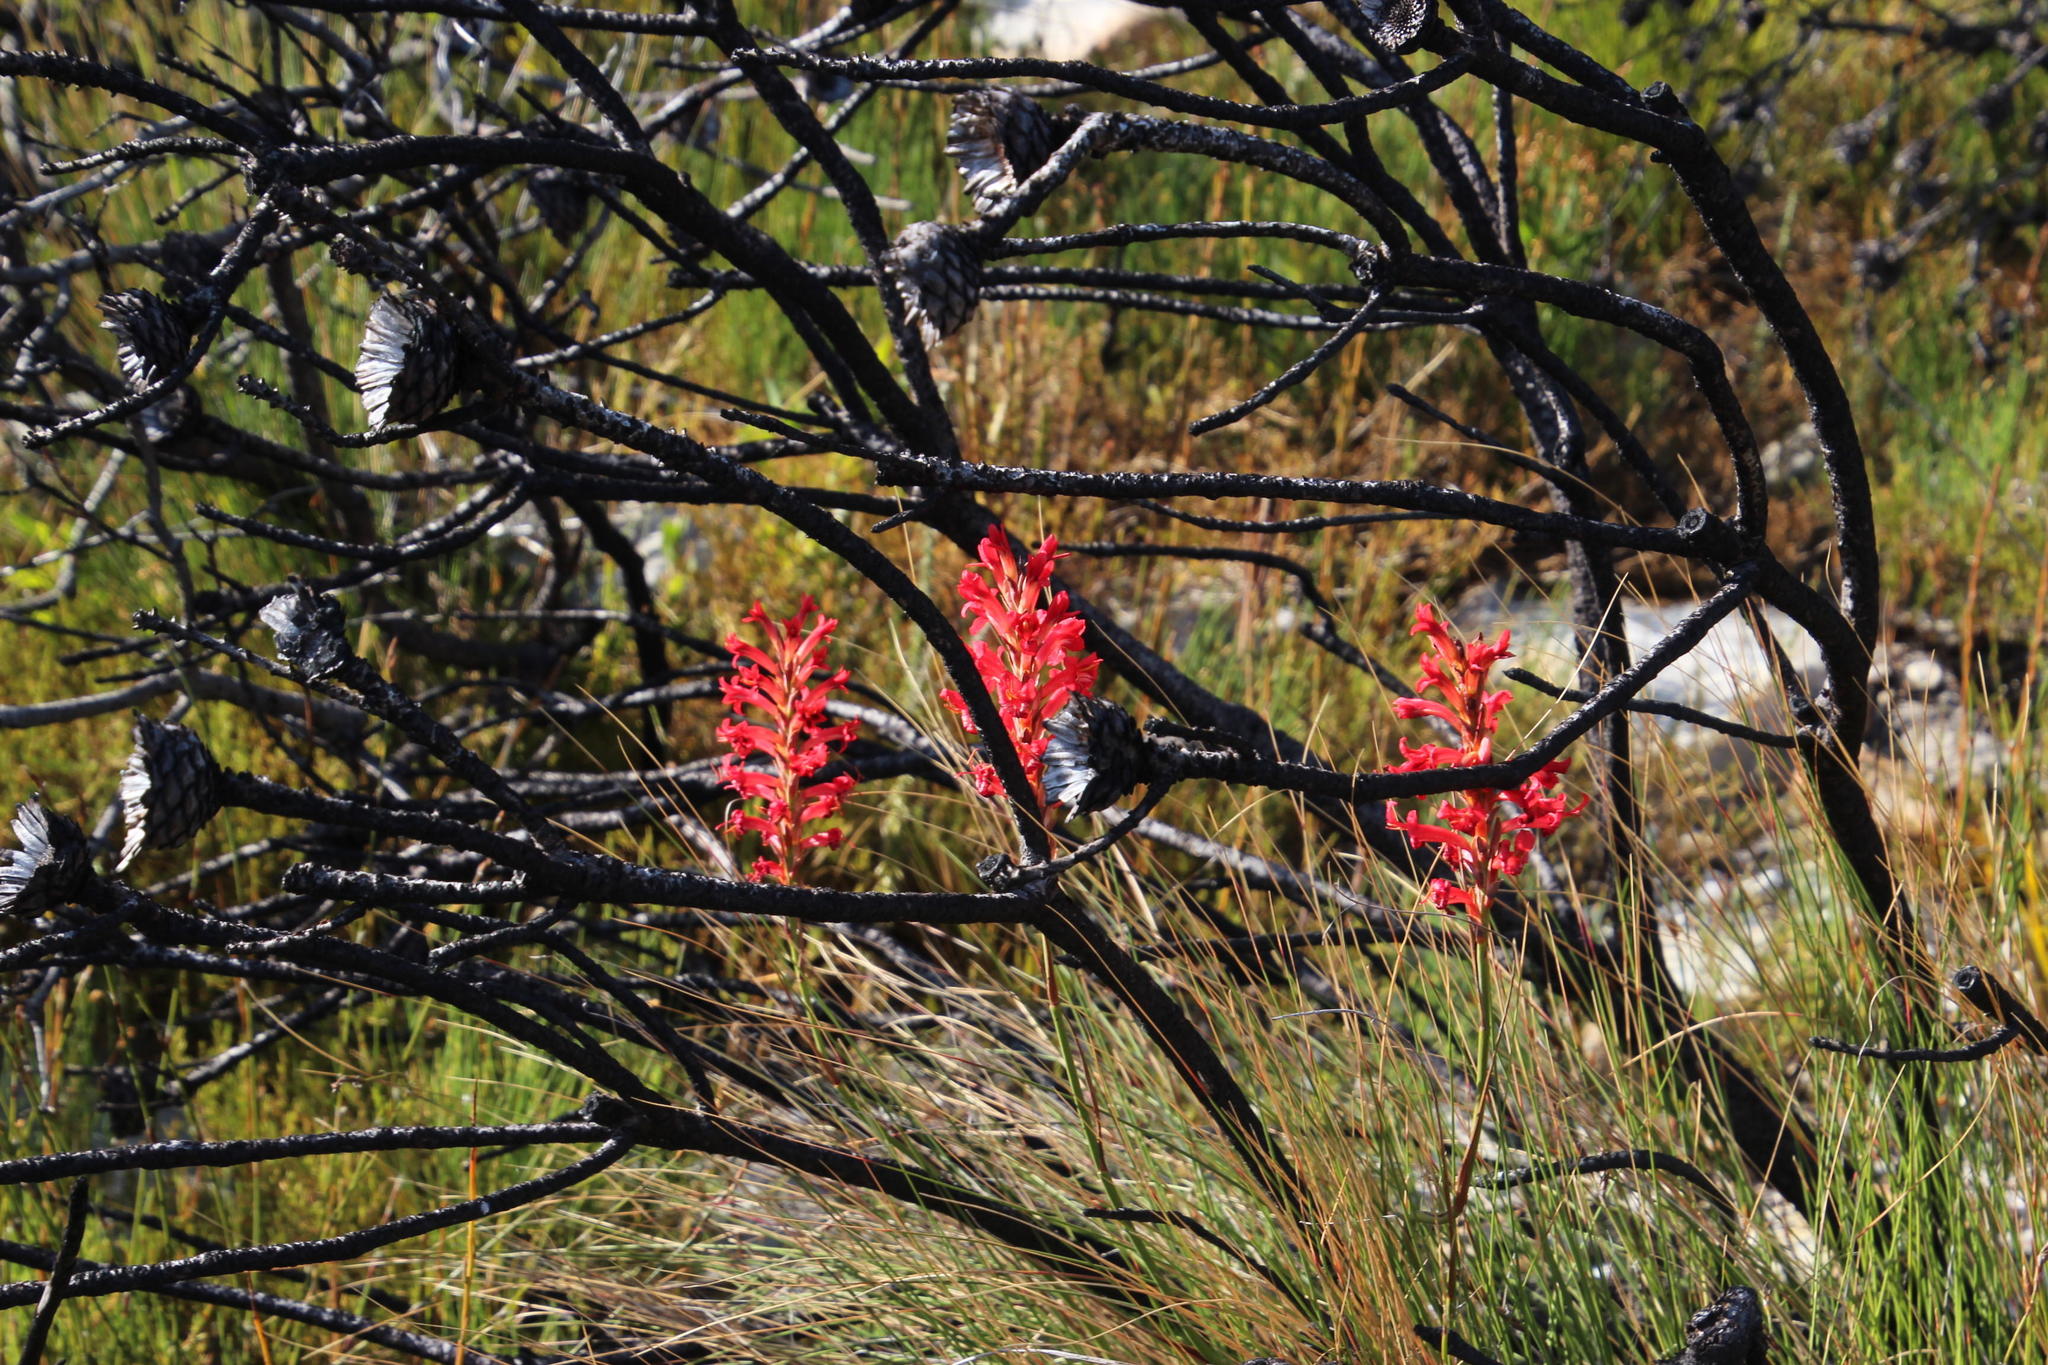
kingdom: Plantae
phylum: Tracheophyta
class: Liliopsida
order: Asparagales
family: Iridaceae
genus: Tritoniopsis
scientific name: Tritoniopsis triticea
